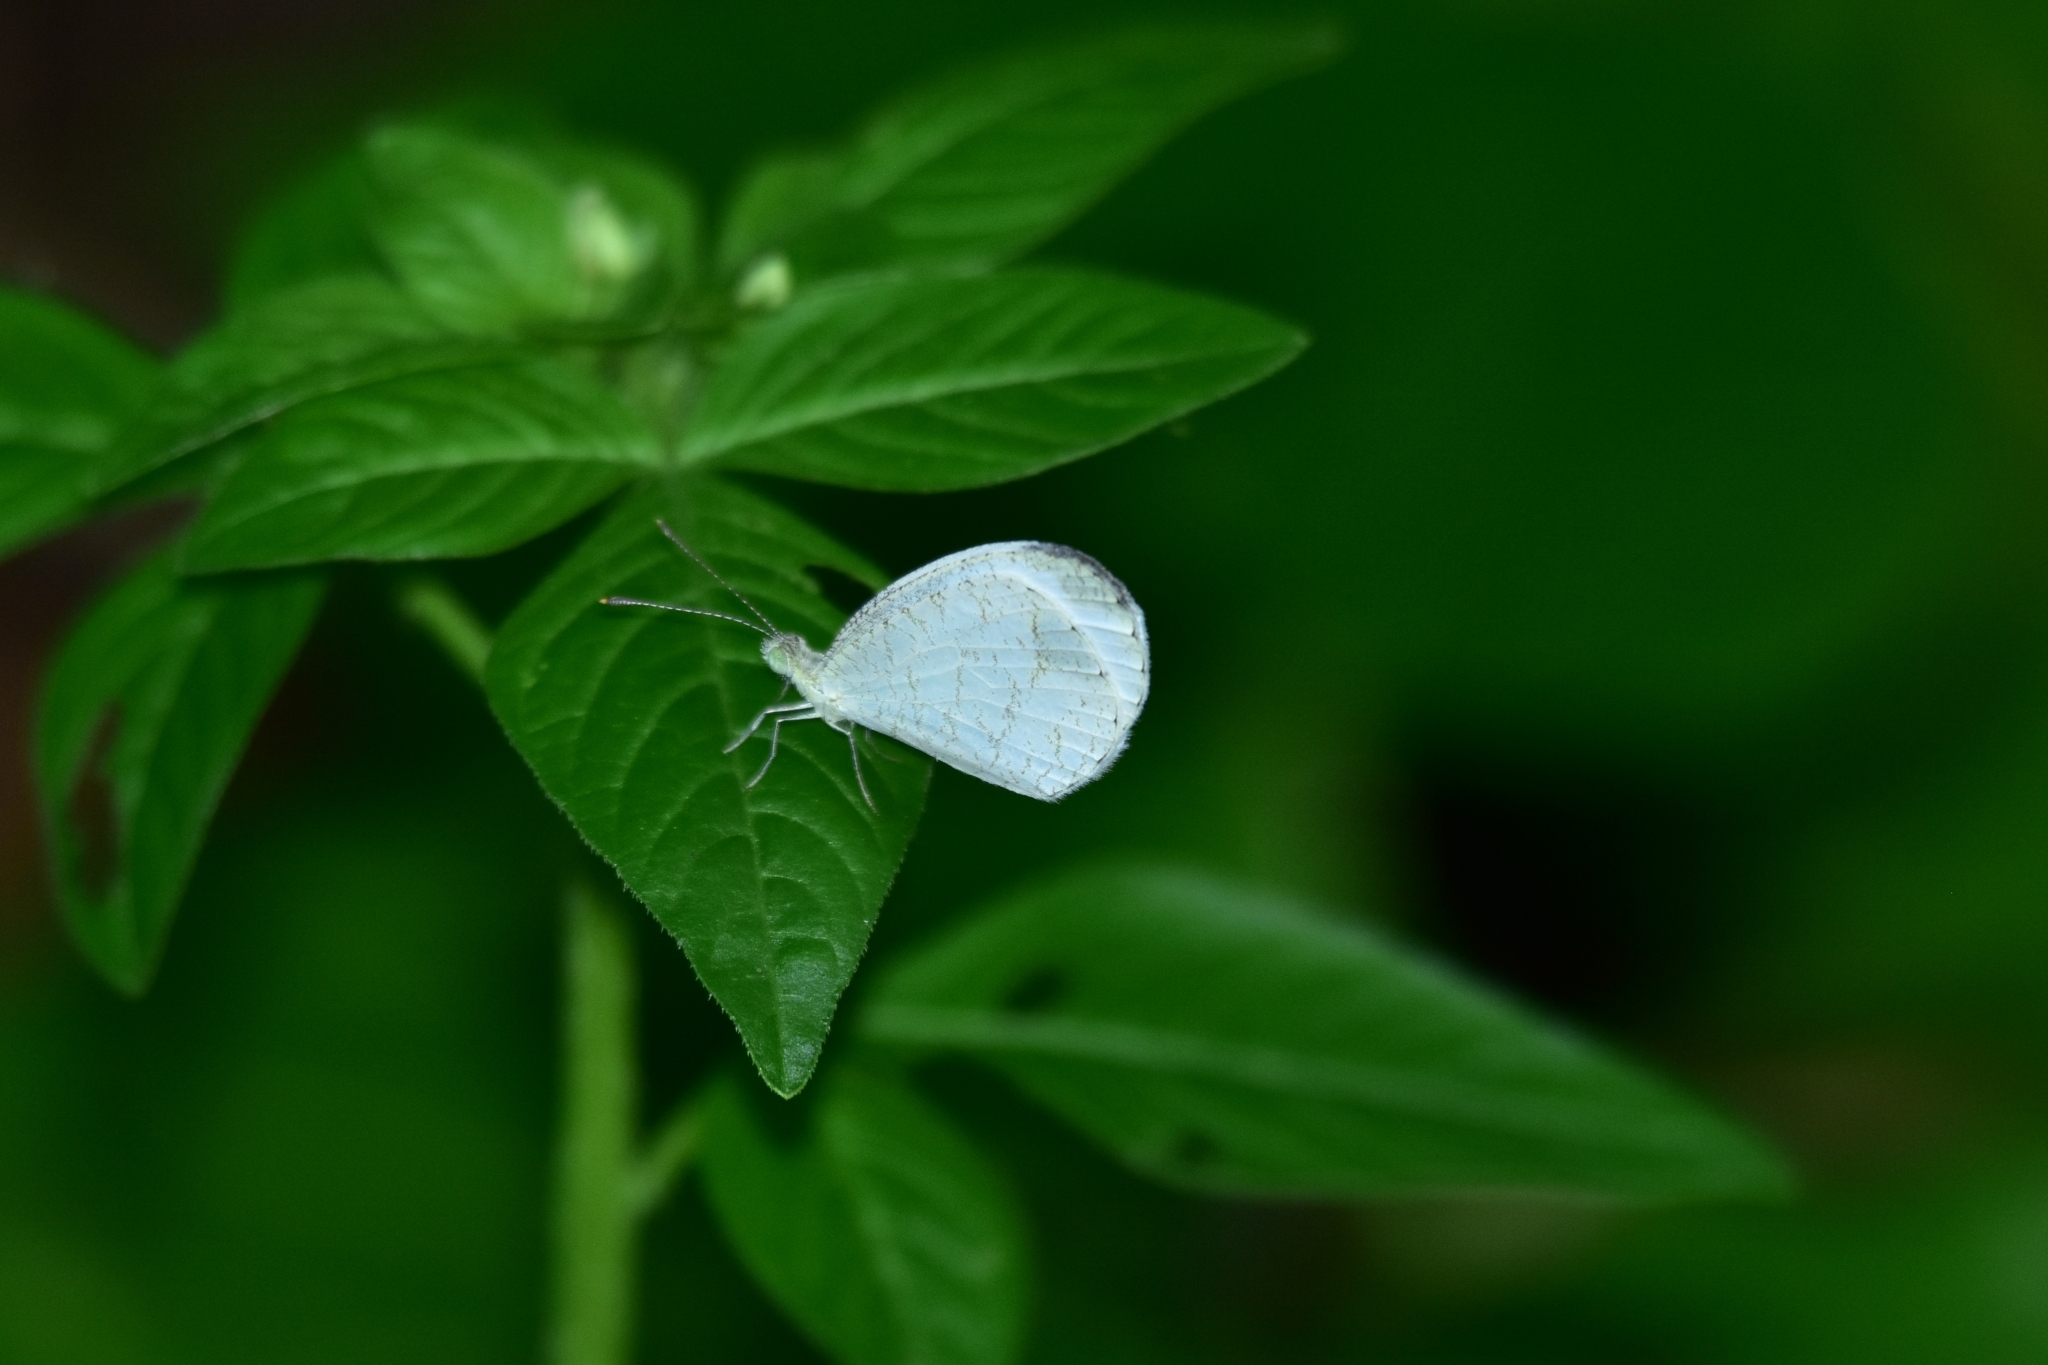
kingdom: Animalia
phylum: Arthropoda
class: Insecta
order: Lepidoptera
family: Pieridae
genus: Leptosia
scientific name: Leptosia nina
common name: Psyche
